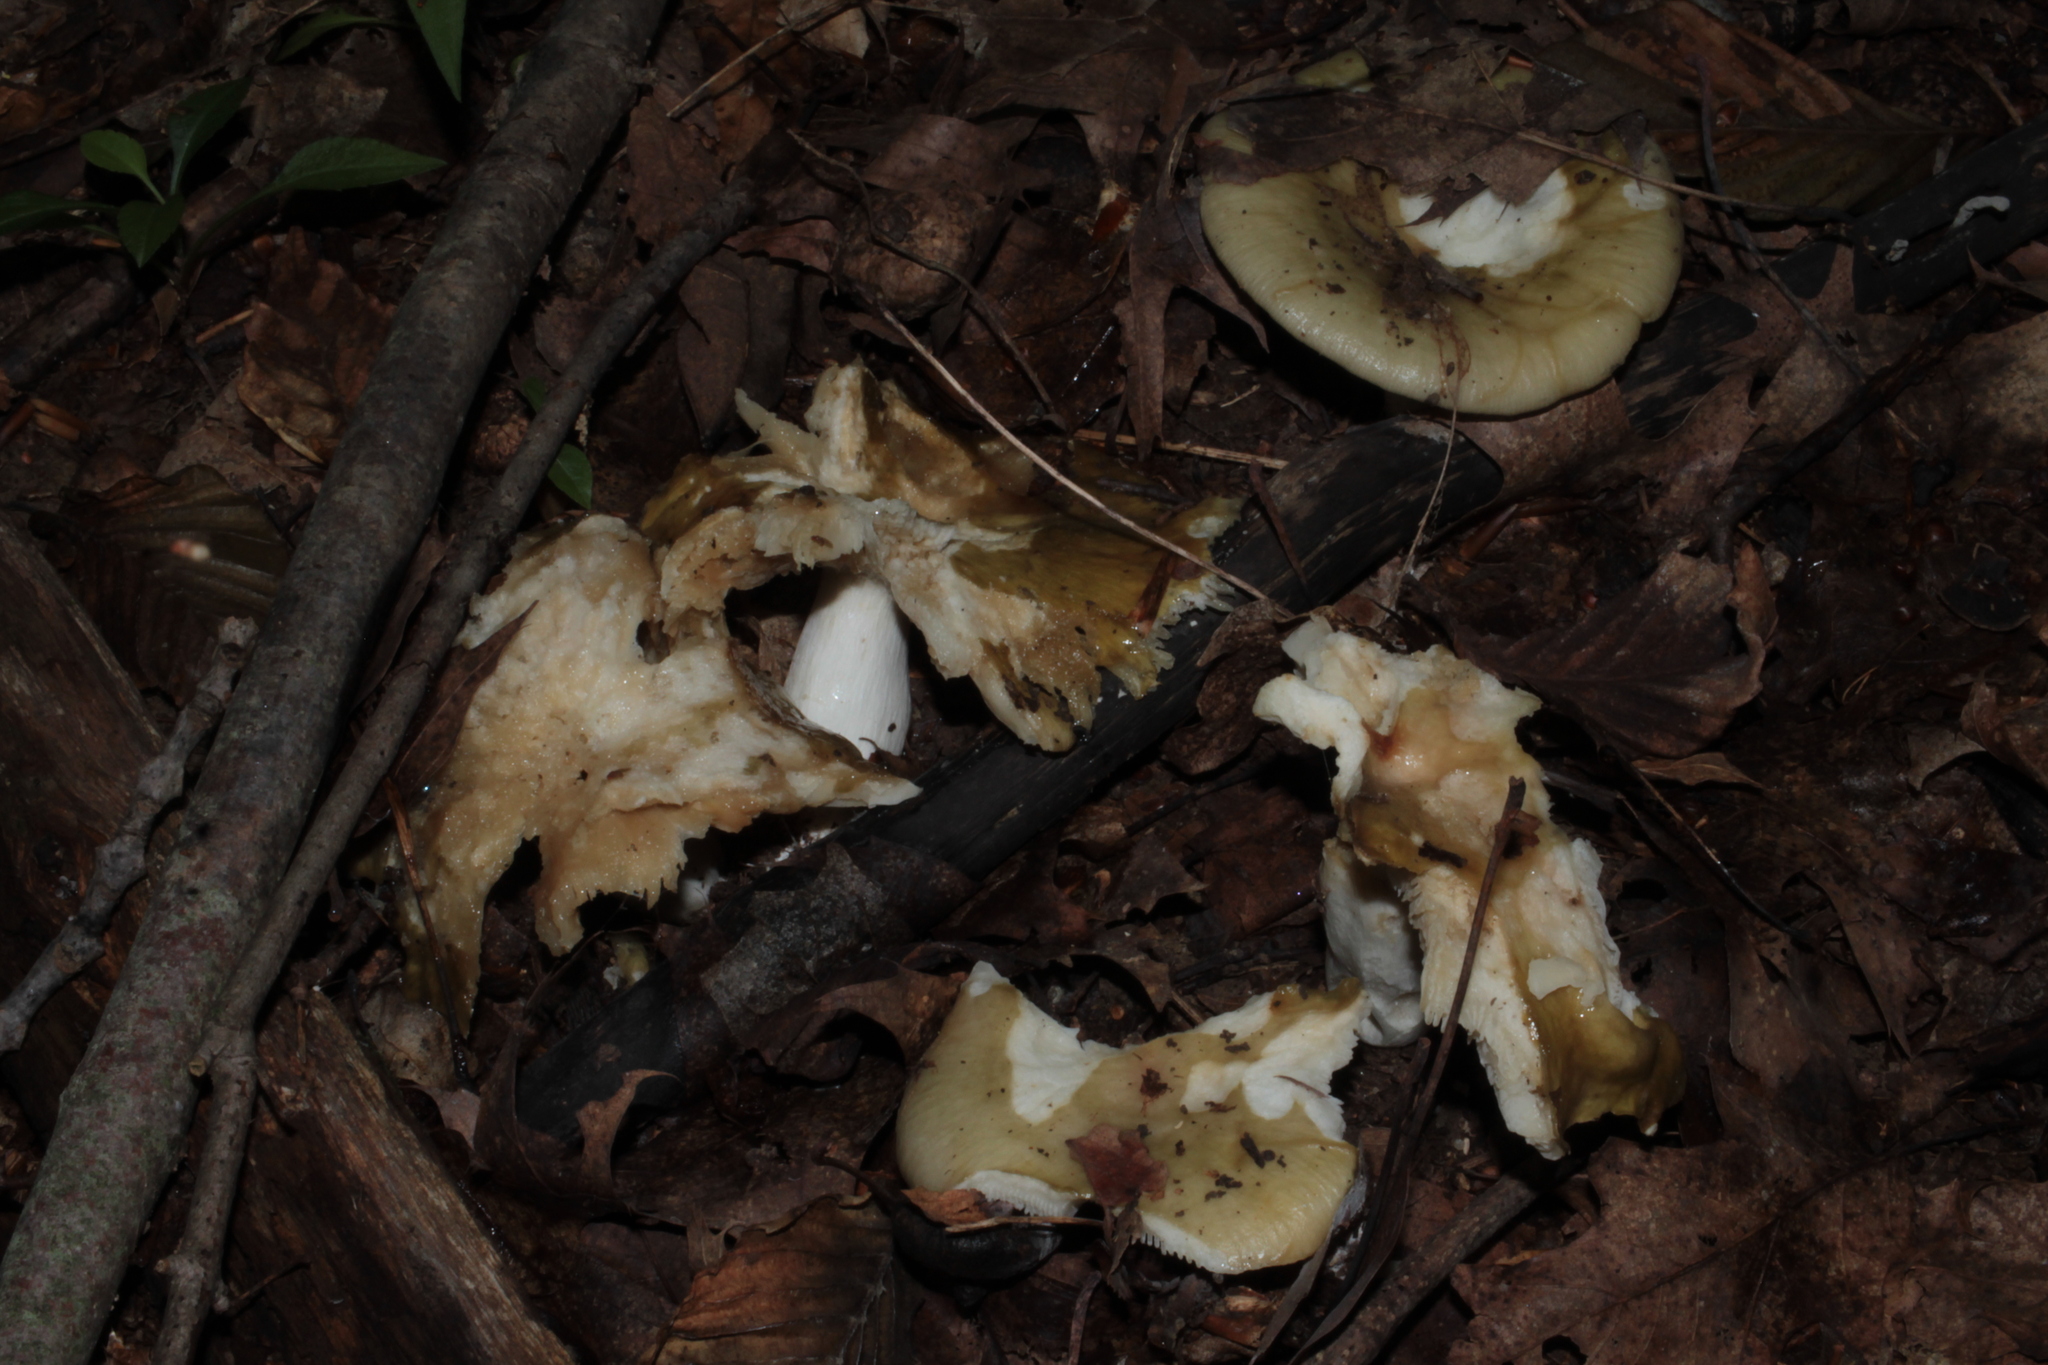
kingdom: Fungi
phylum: Basidiomycota
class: Agaricomycetes
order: Russulales
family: Russulaceae
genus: Russula
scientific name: Russula cyanoxantha
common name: Charcoal burner
